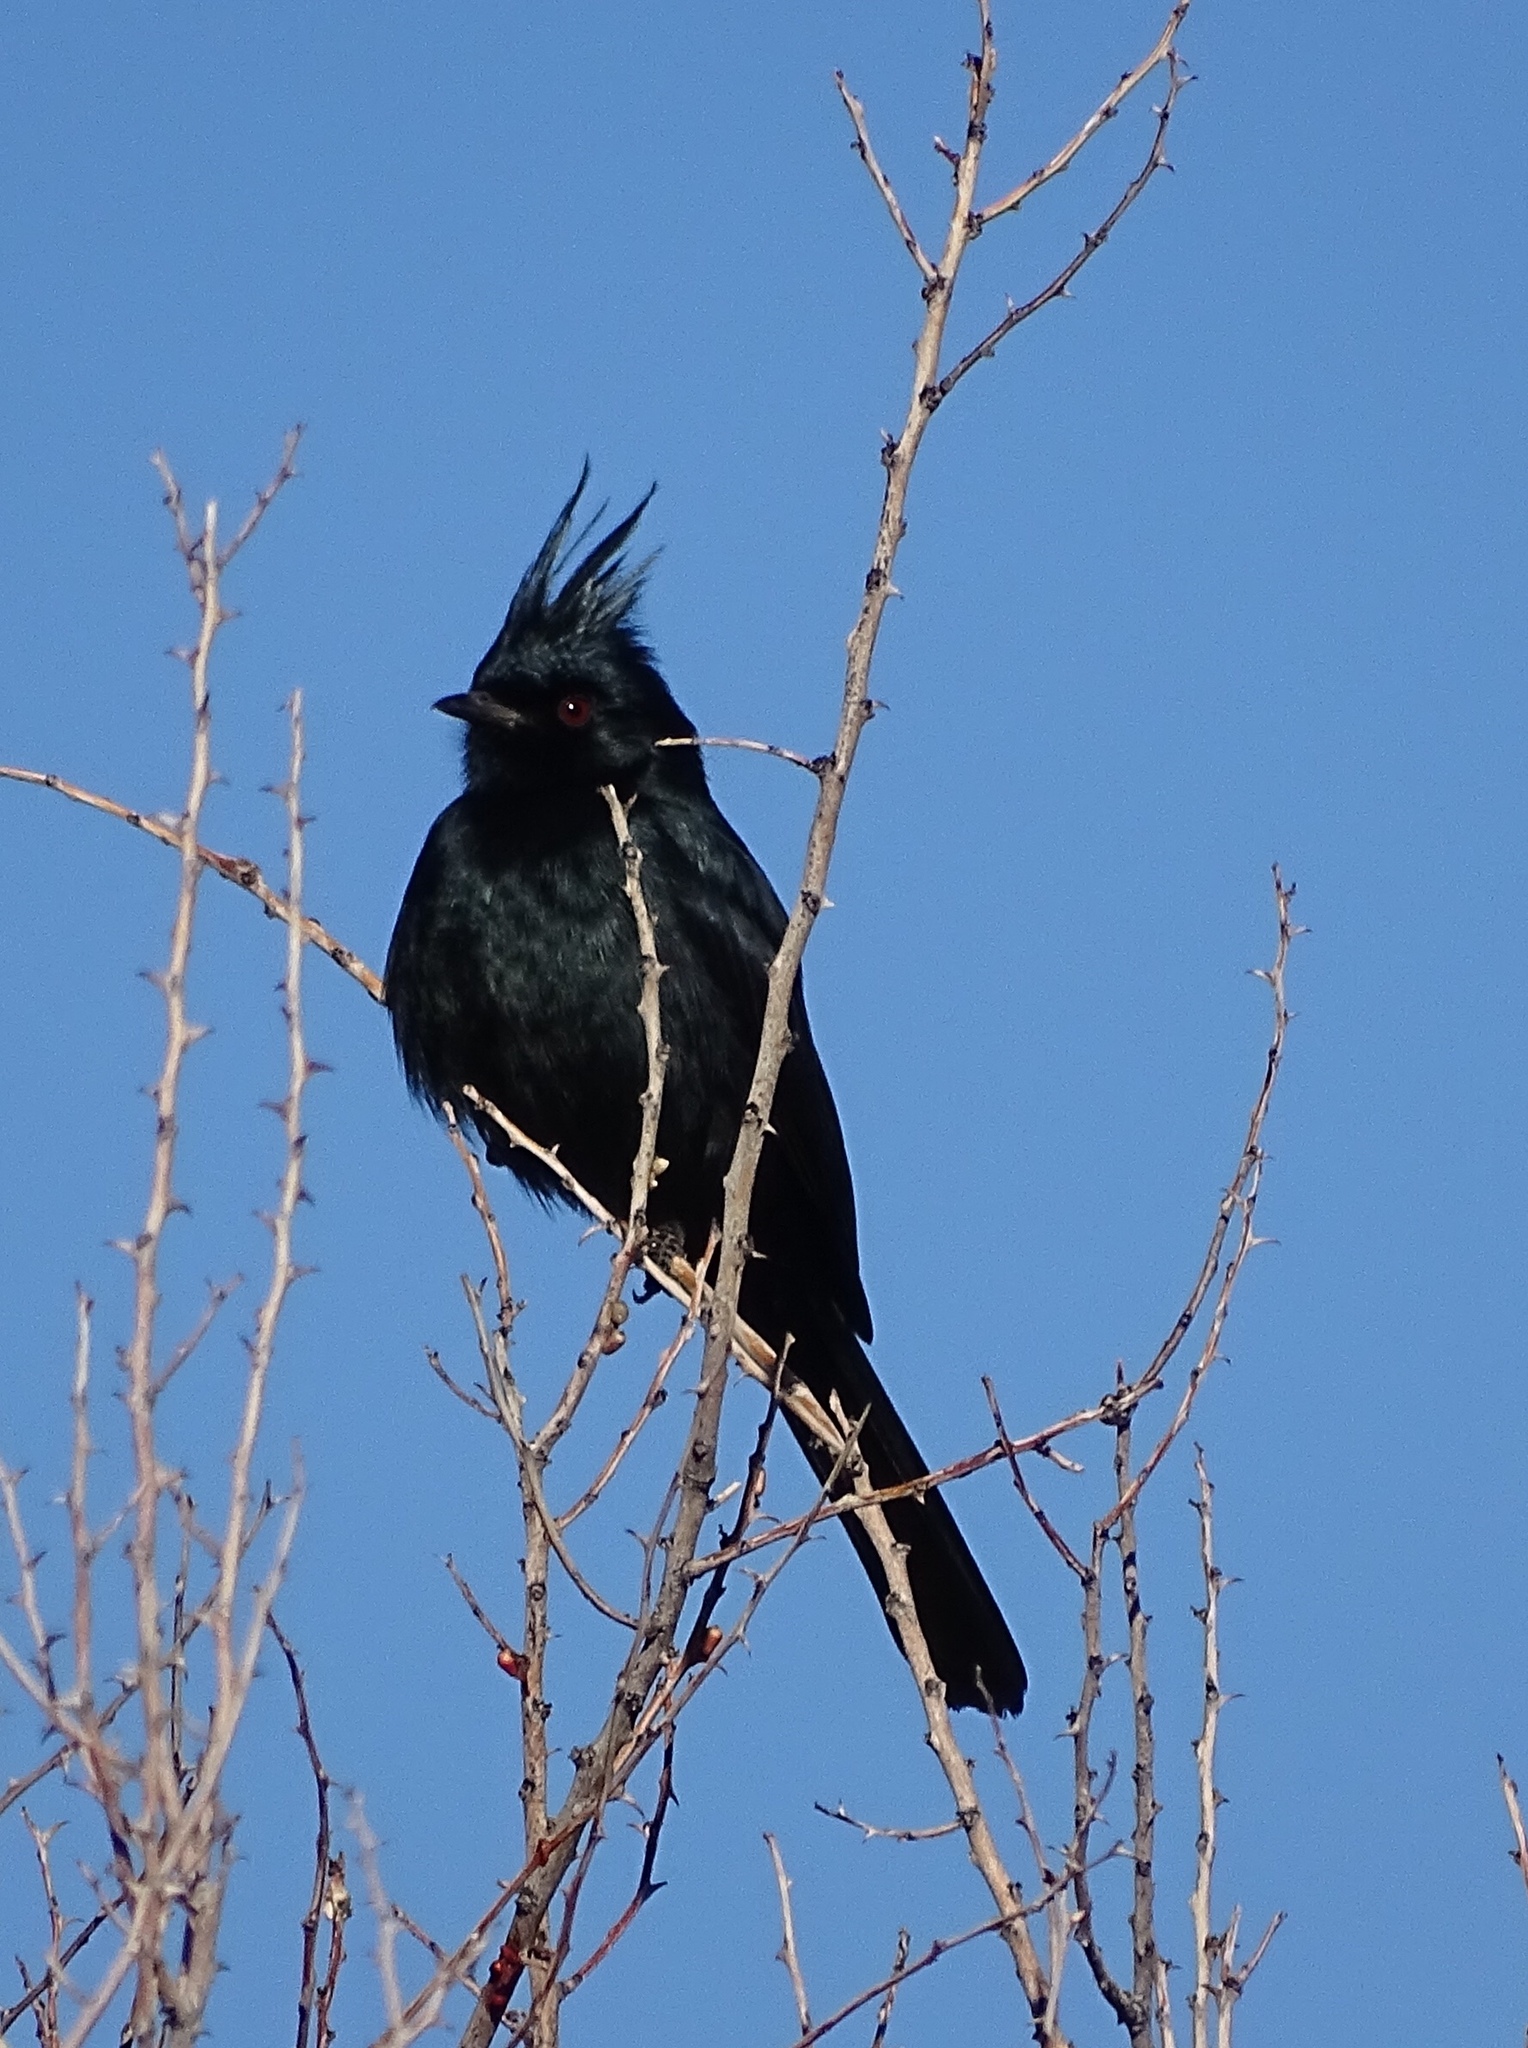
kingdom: Animalia
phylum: Chordata
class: Aves
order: Passeriformes
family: Ptilogonatidae
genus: Phainopepla
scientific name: Phainopepla nitens
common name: Phainopepla
